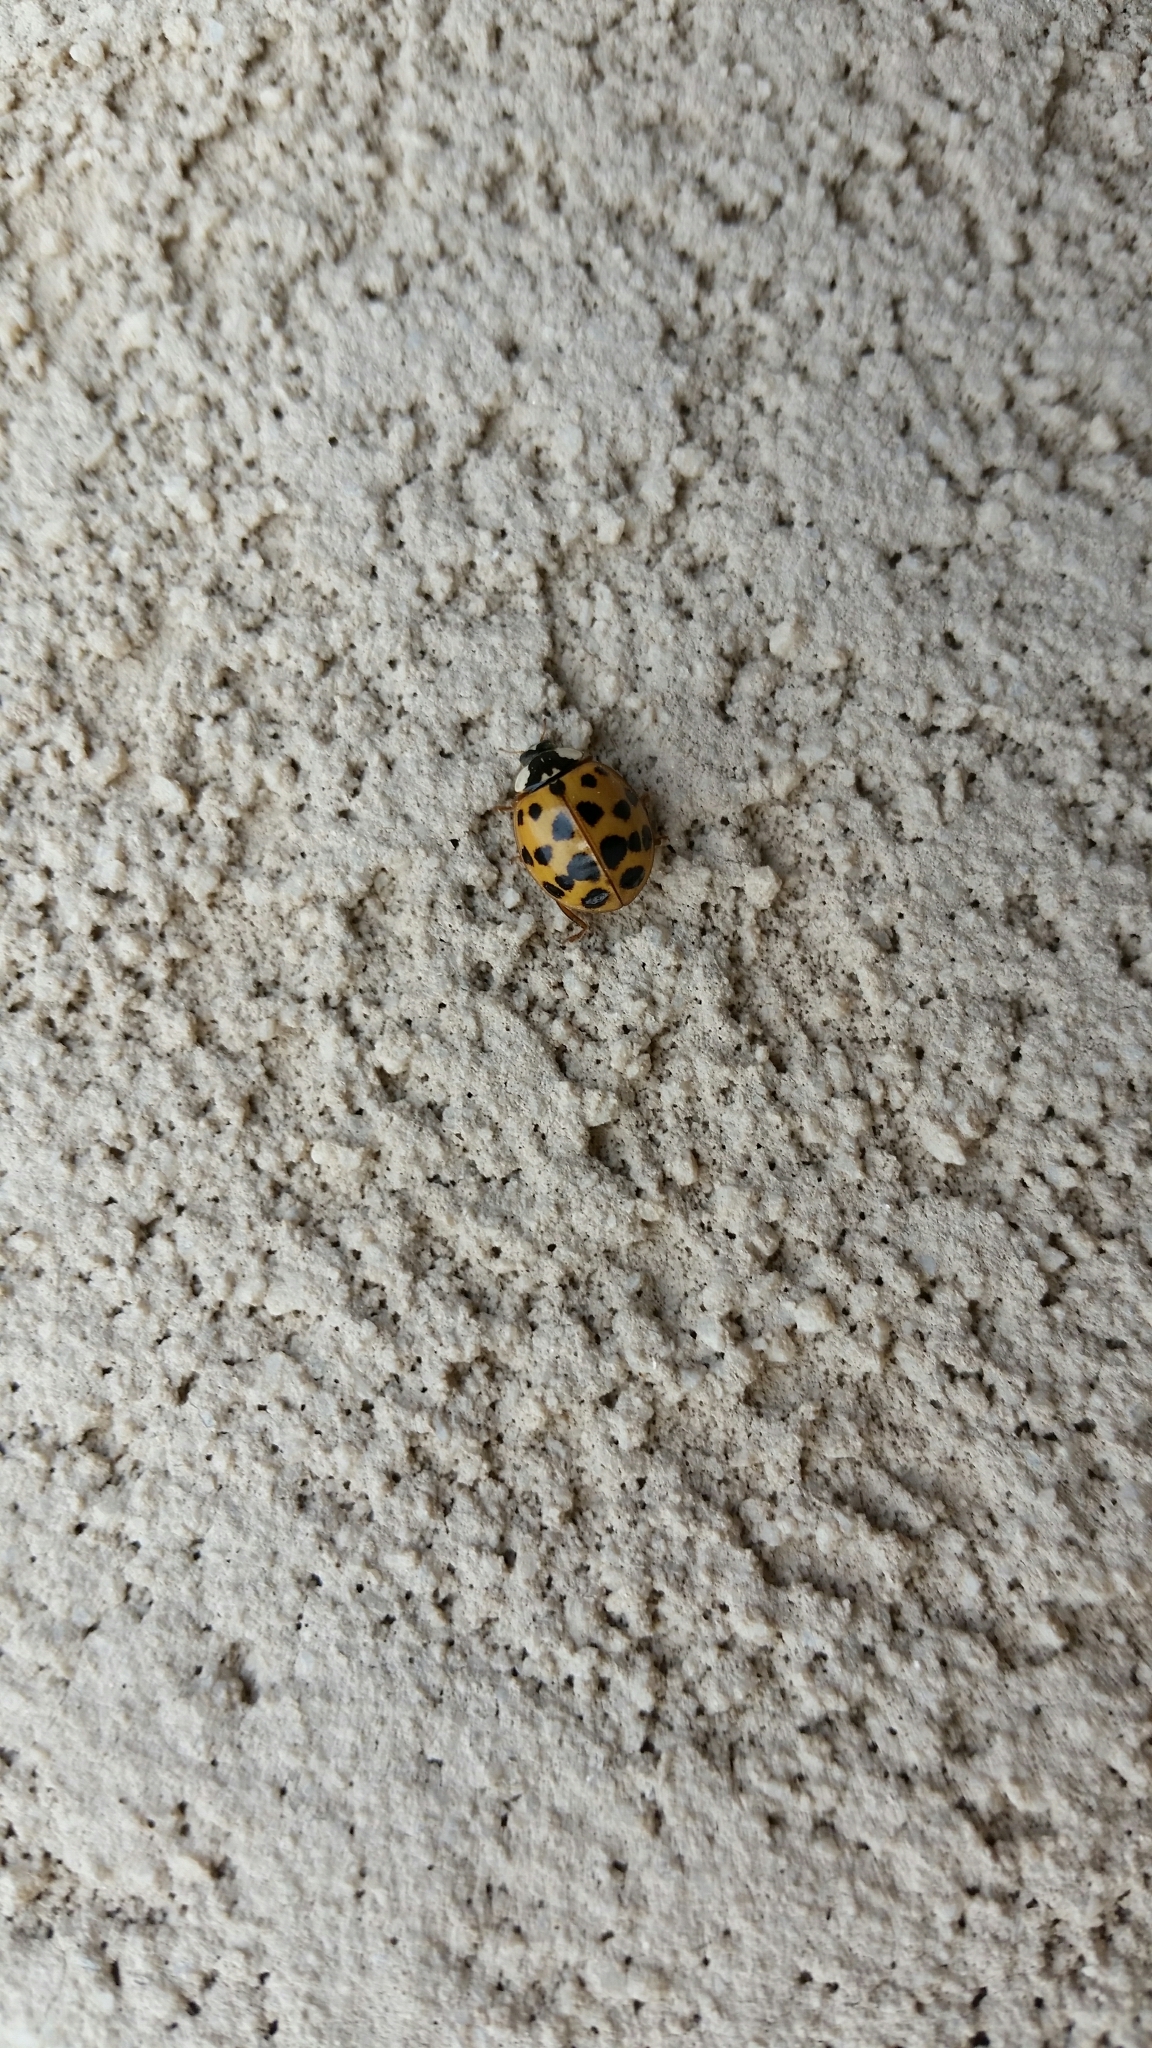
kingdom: Animalia
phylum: Arthropoda
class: Insecta
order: Coleoptera
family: Coccinellidae
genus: Harmonia
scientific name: Harmonia axyridis
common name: Harlequin ladybird
